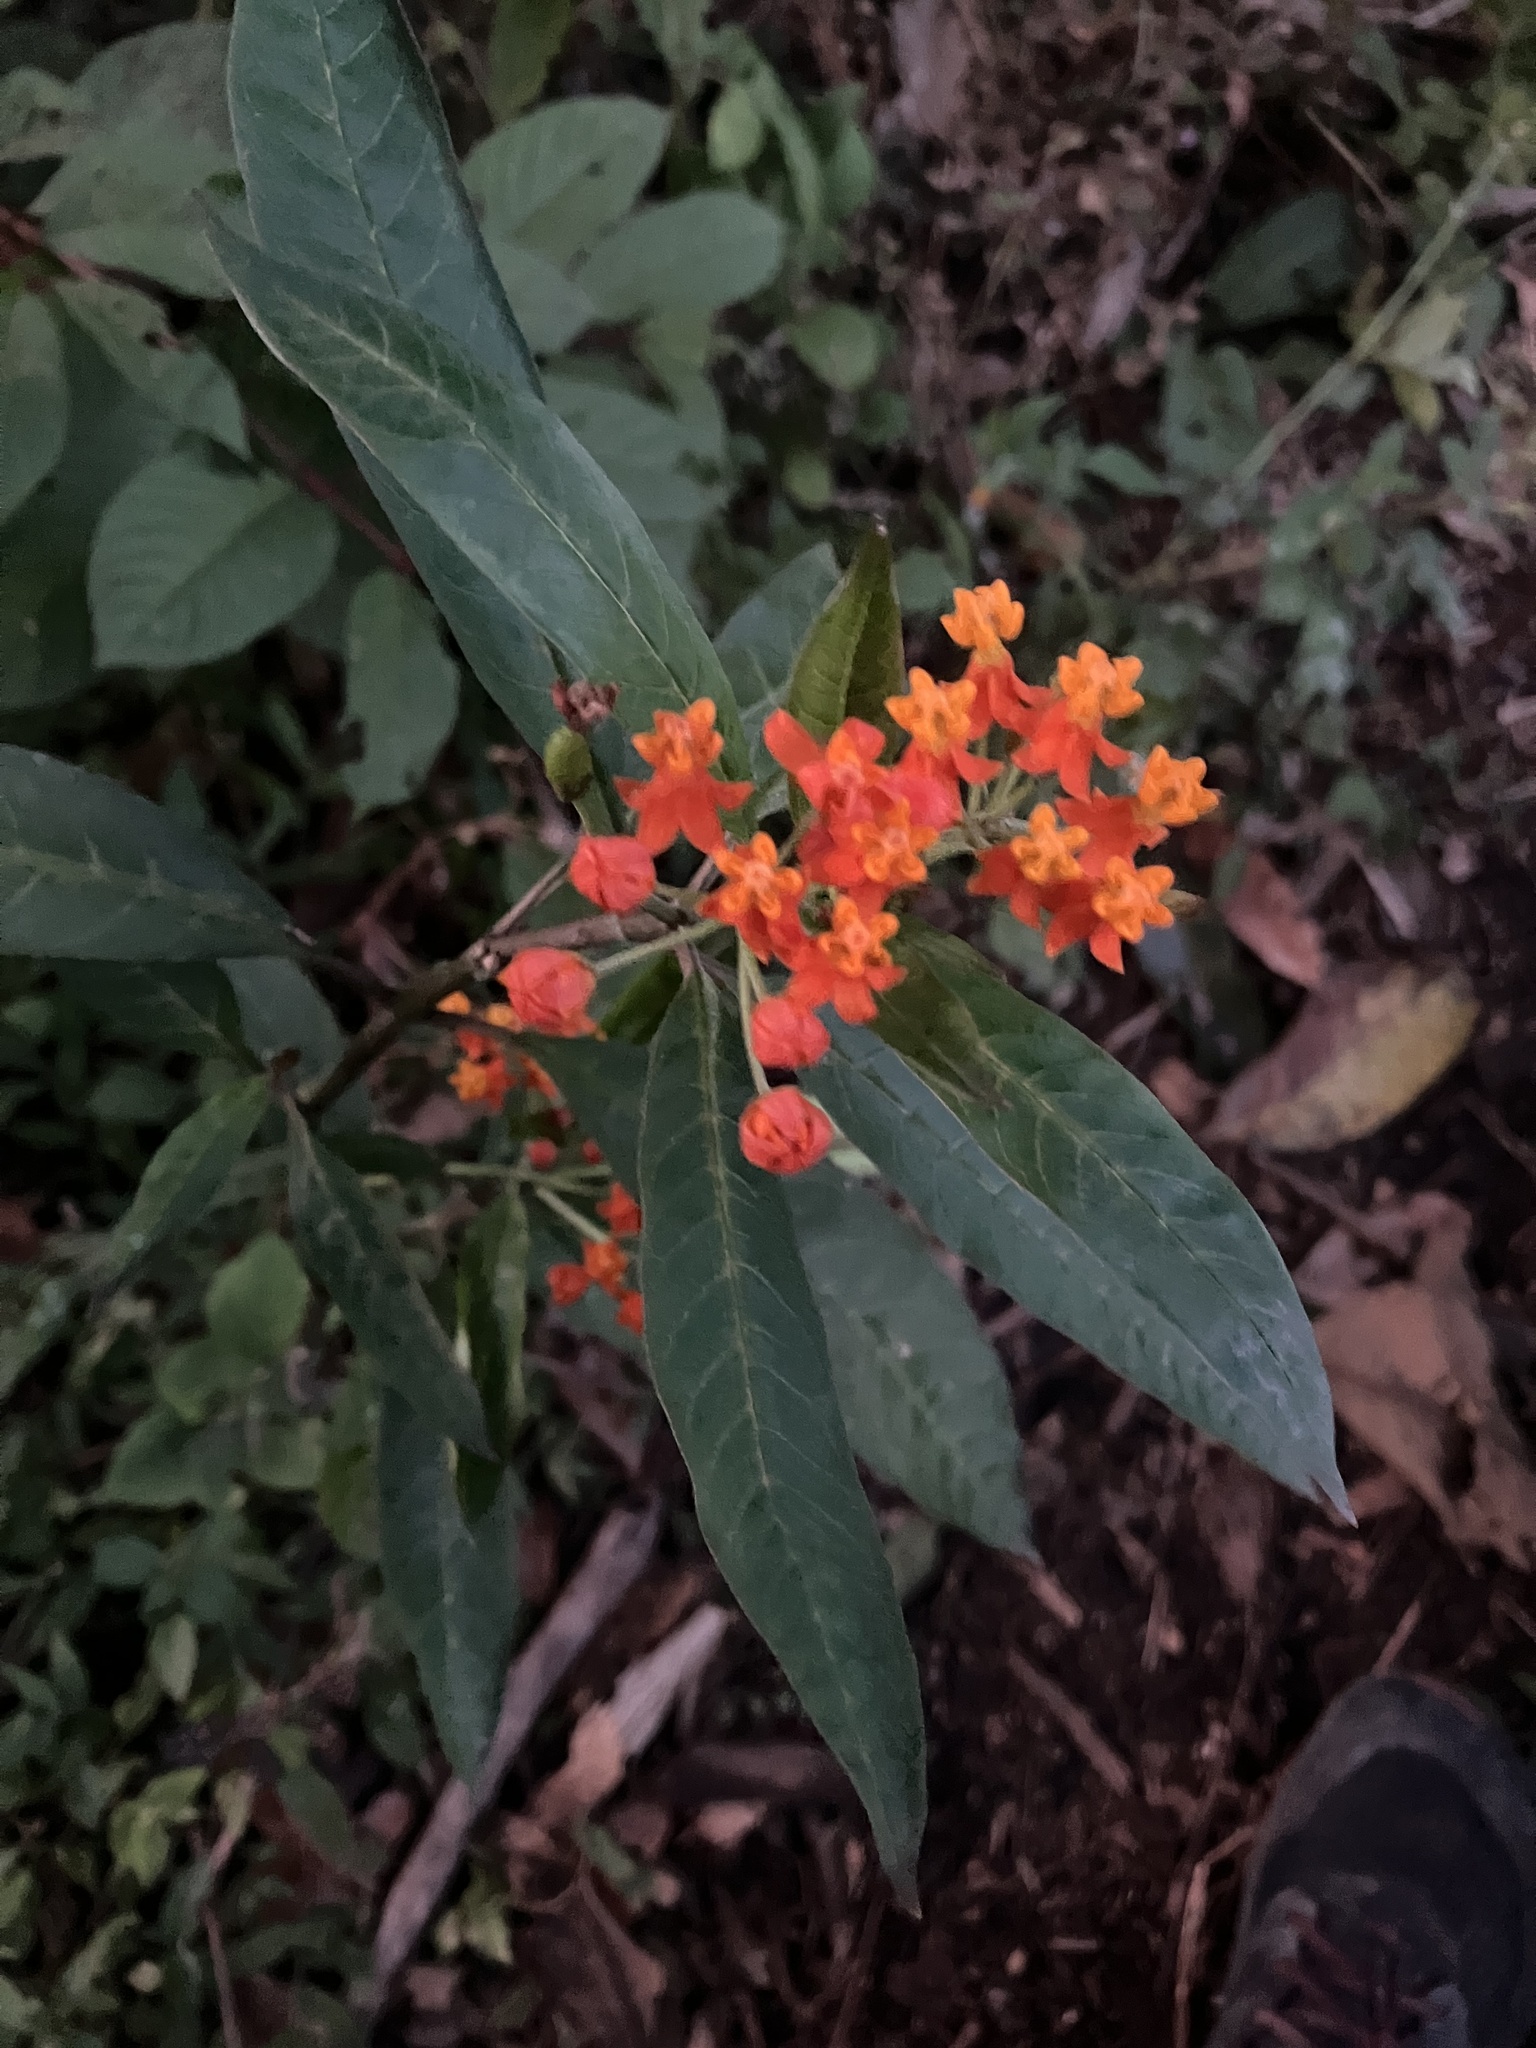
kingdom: Plantae
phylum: Tracheophyta
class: Magnoliopsida
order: Gentianales
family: Apocynaceae
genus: Asclepias
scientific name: Asclepias curassavica
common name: Bloodflower
